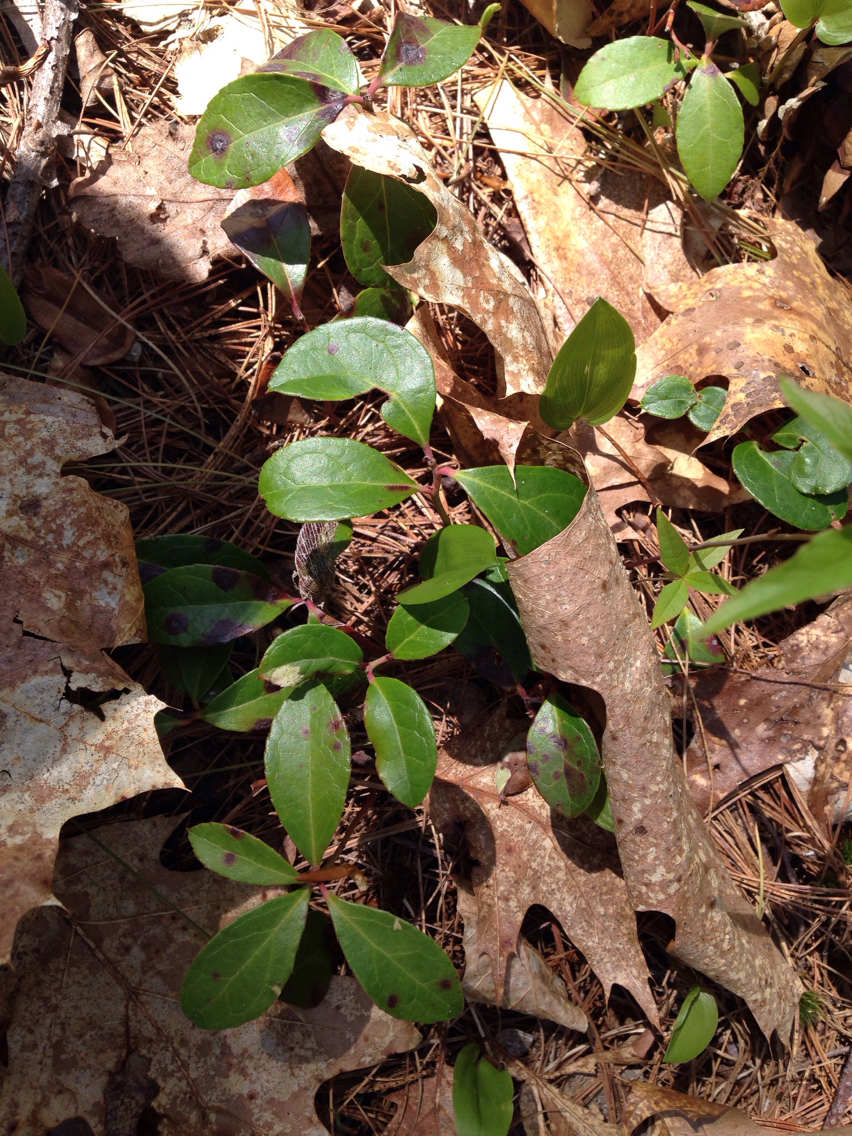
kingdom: Plantae
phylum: Tracheophyta
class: Magnoliopsida
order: Ericales
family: Ericaceae
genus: Gaultheria
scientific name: Gaultheria procumbens
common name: Checkerberry
